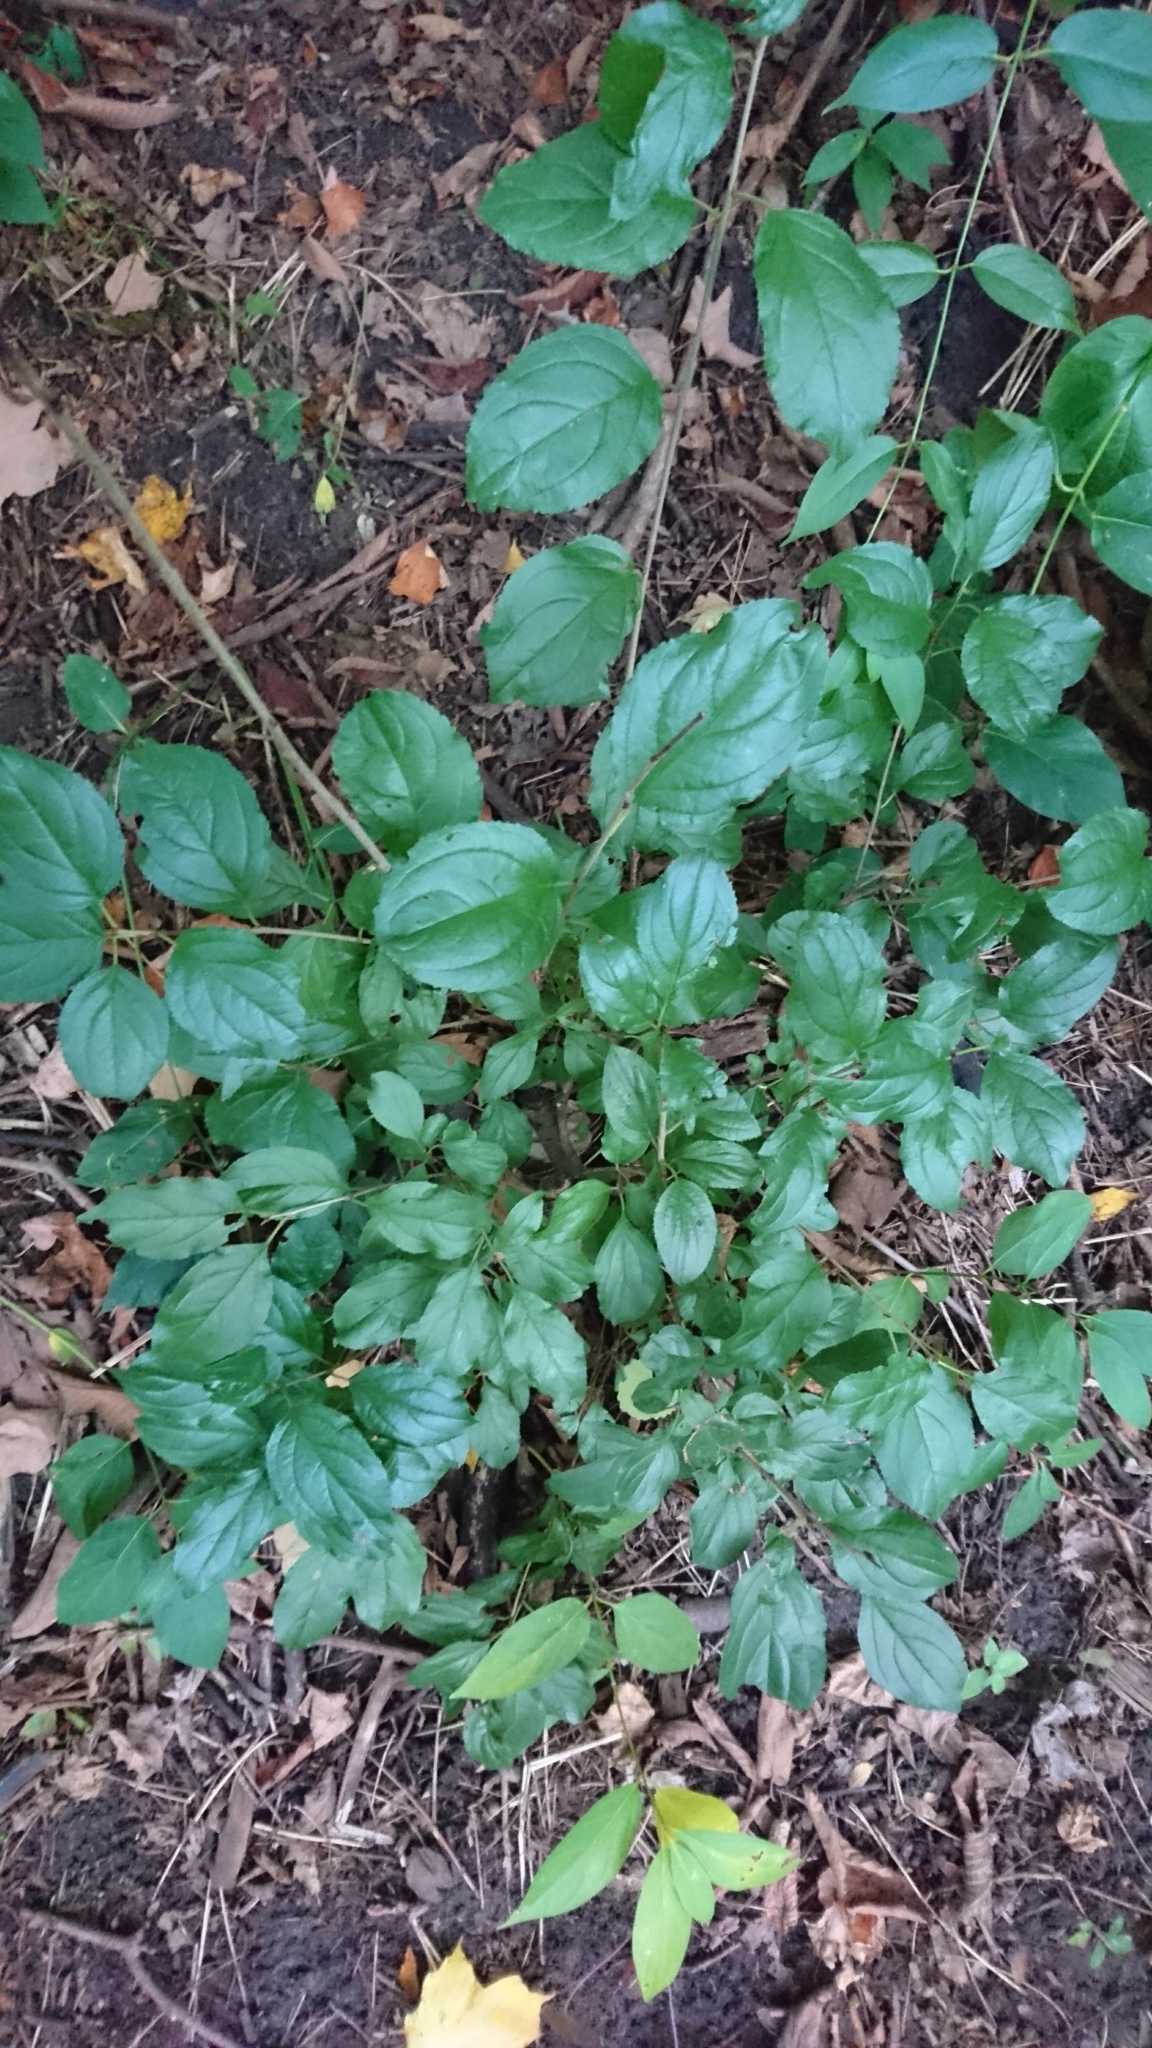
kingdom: Plantae
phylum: Tracheophyta
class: Magnoliopsida
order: Rosales
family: Rhamnaceae
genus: Rhamnus
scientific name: Rhamnus cathartica
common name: Common buckthorn
